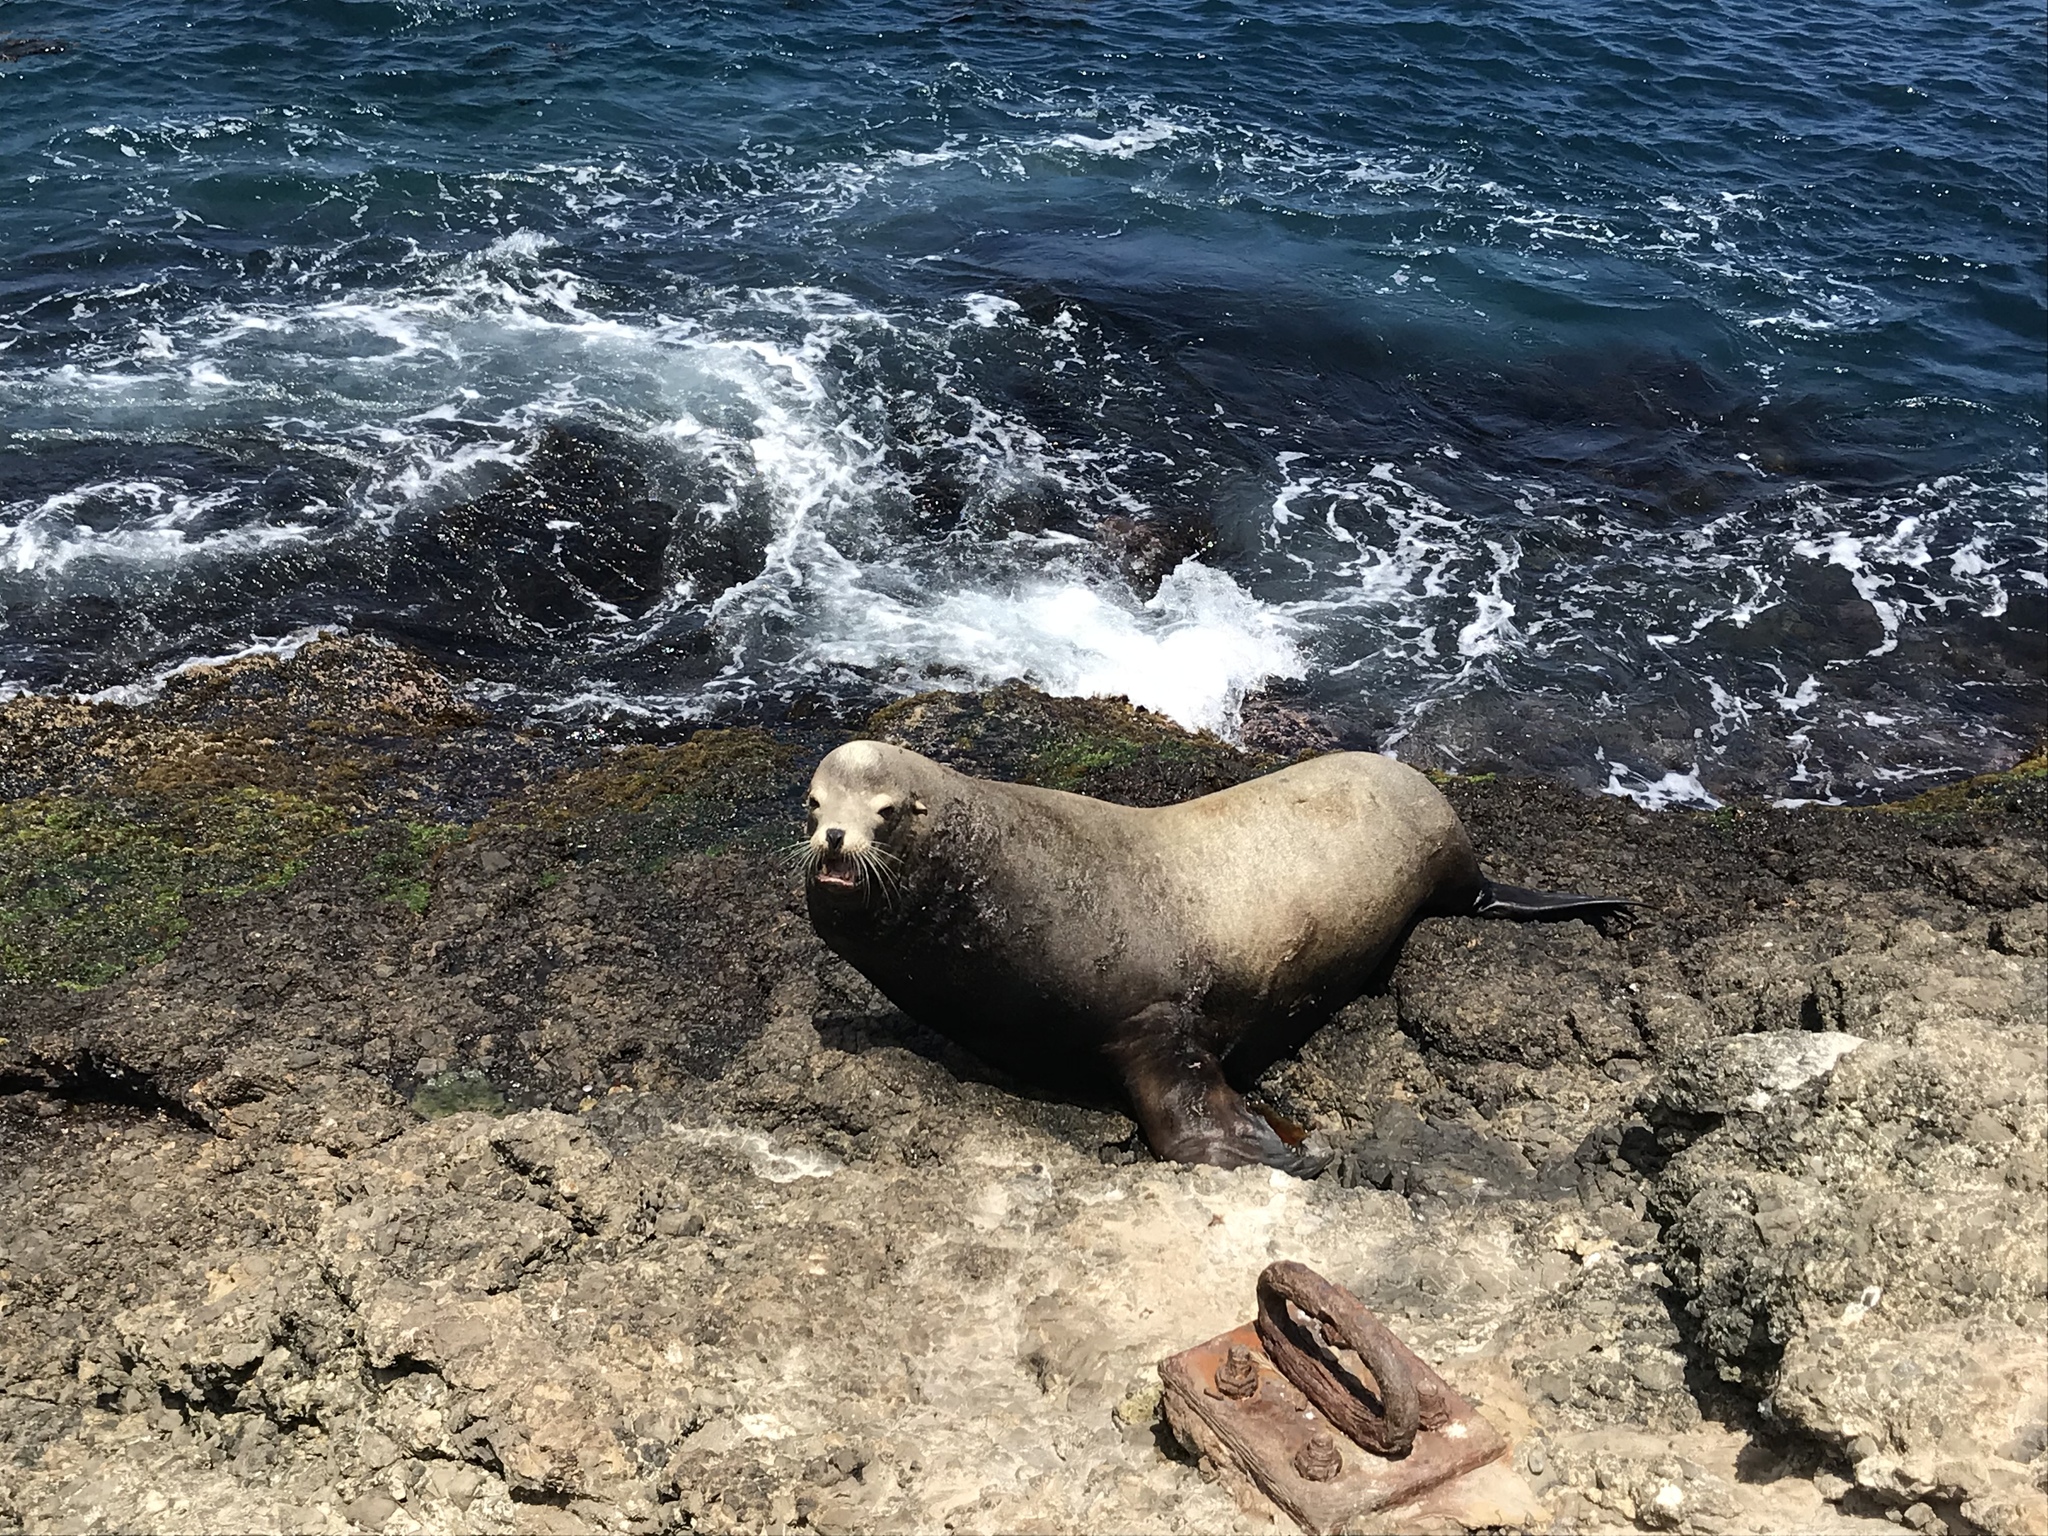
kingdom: Animalia
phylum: Chordata
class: Mammalia
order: Carnivora
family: Otariidae
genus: Zalophus
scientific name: Zalophus californianus
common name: California sea lion
